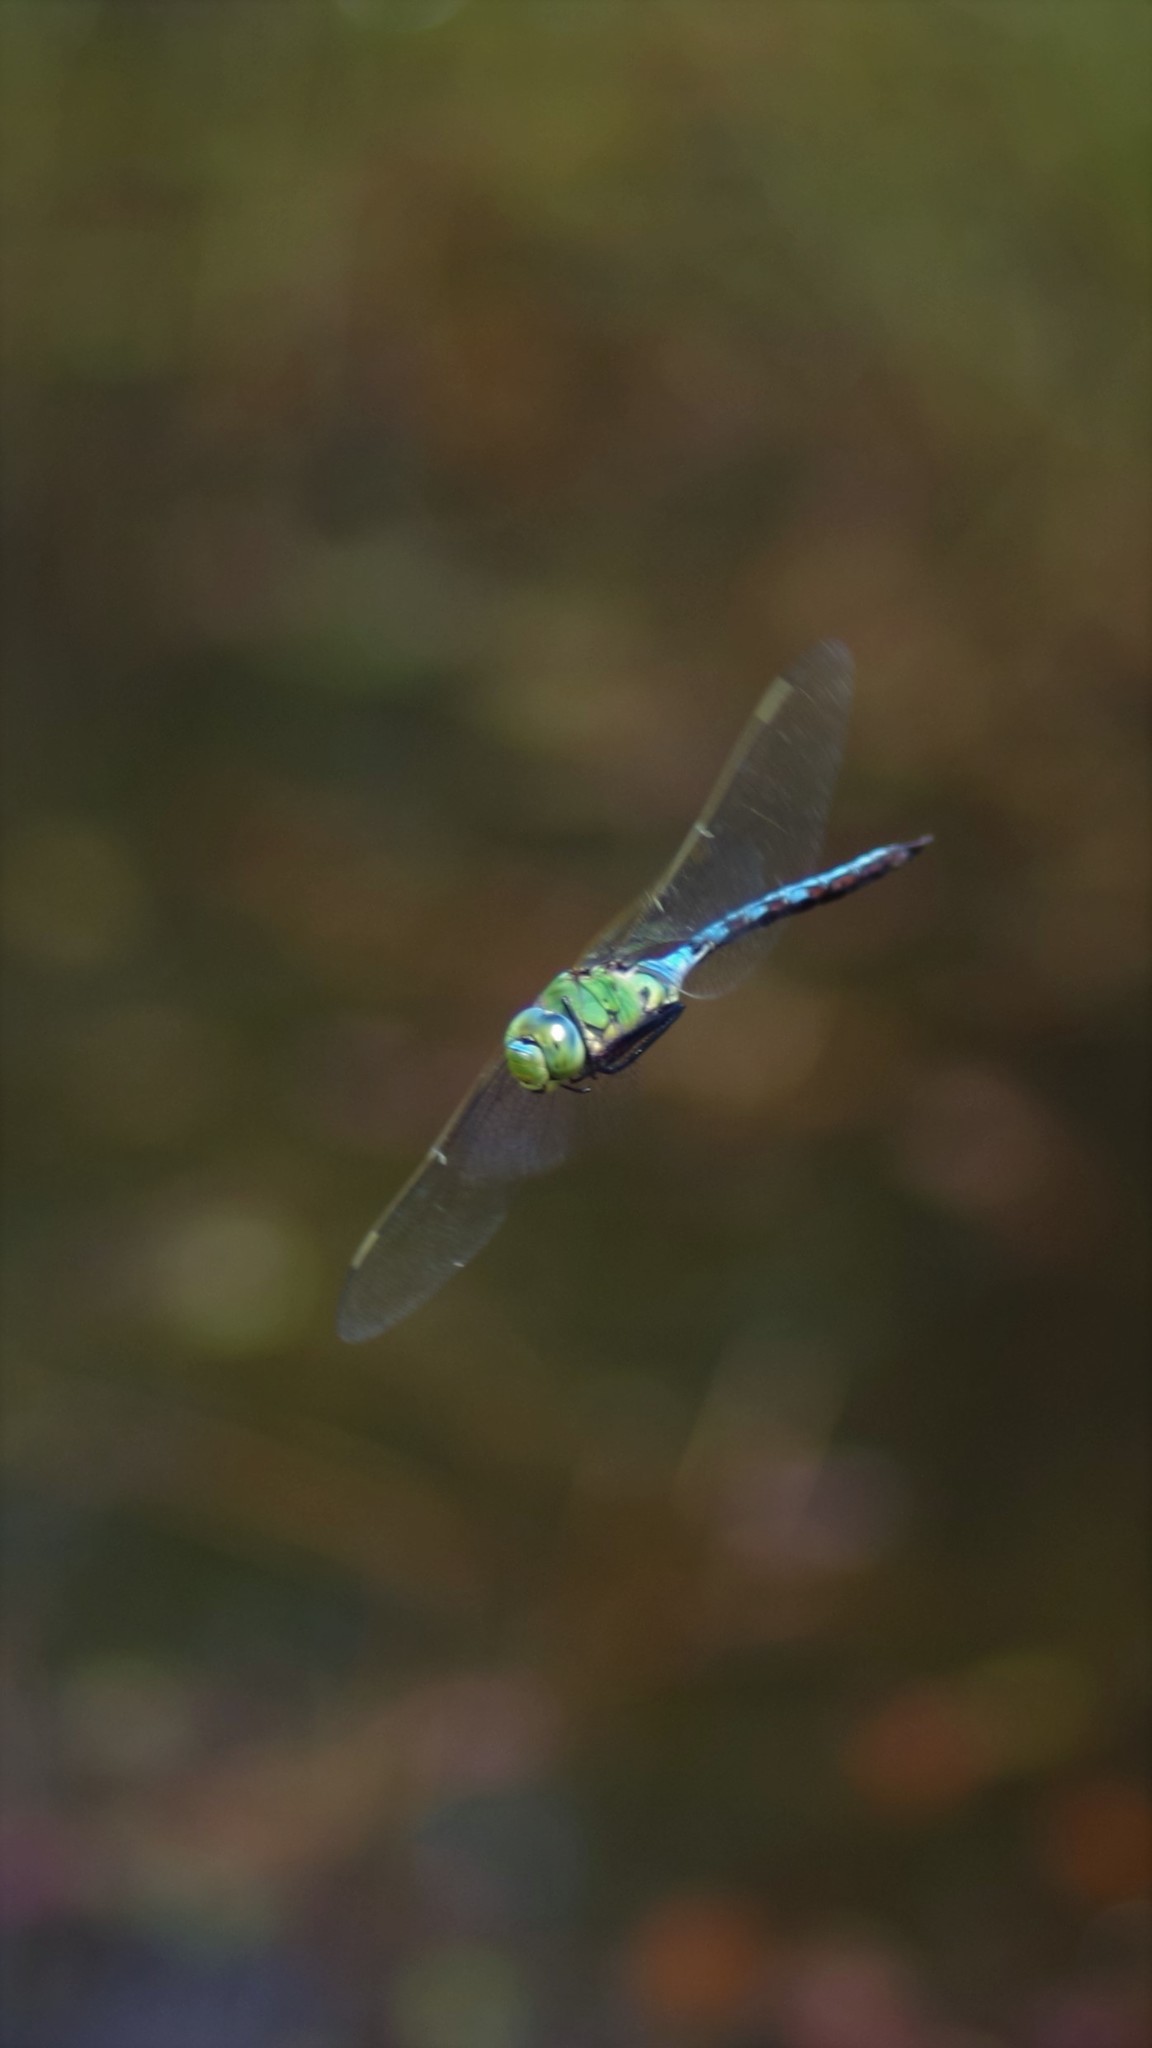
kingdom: Animalia
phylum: Arthropoda
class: Insecta
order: Odonata
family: Aeshnidae
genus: Anax
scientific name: Anax imperator
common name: Emperor dragonfly
